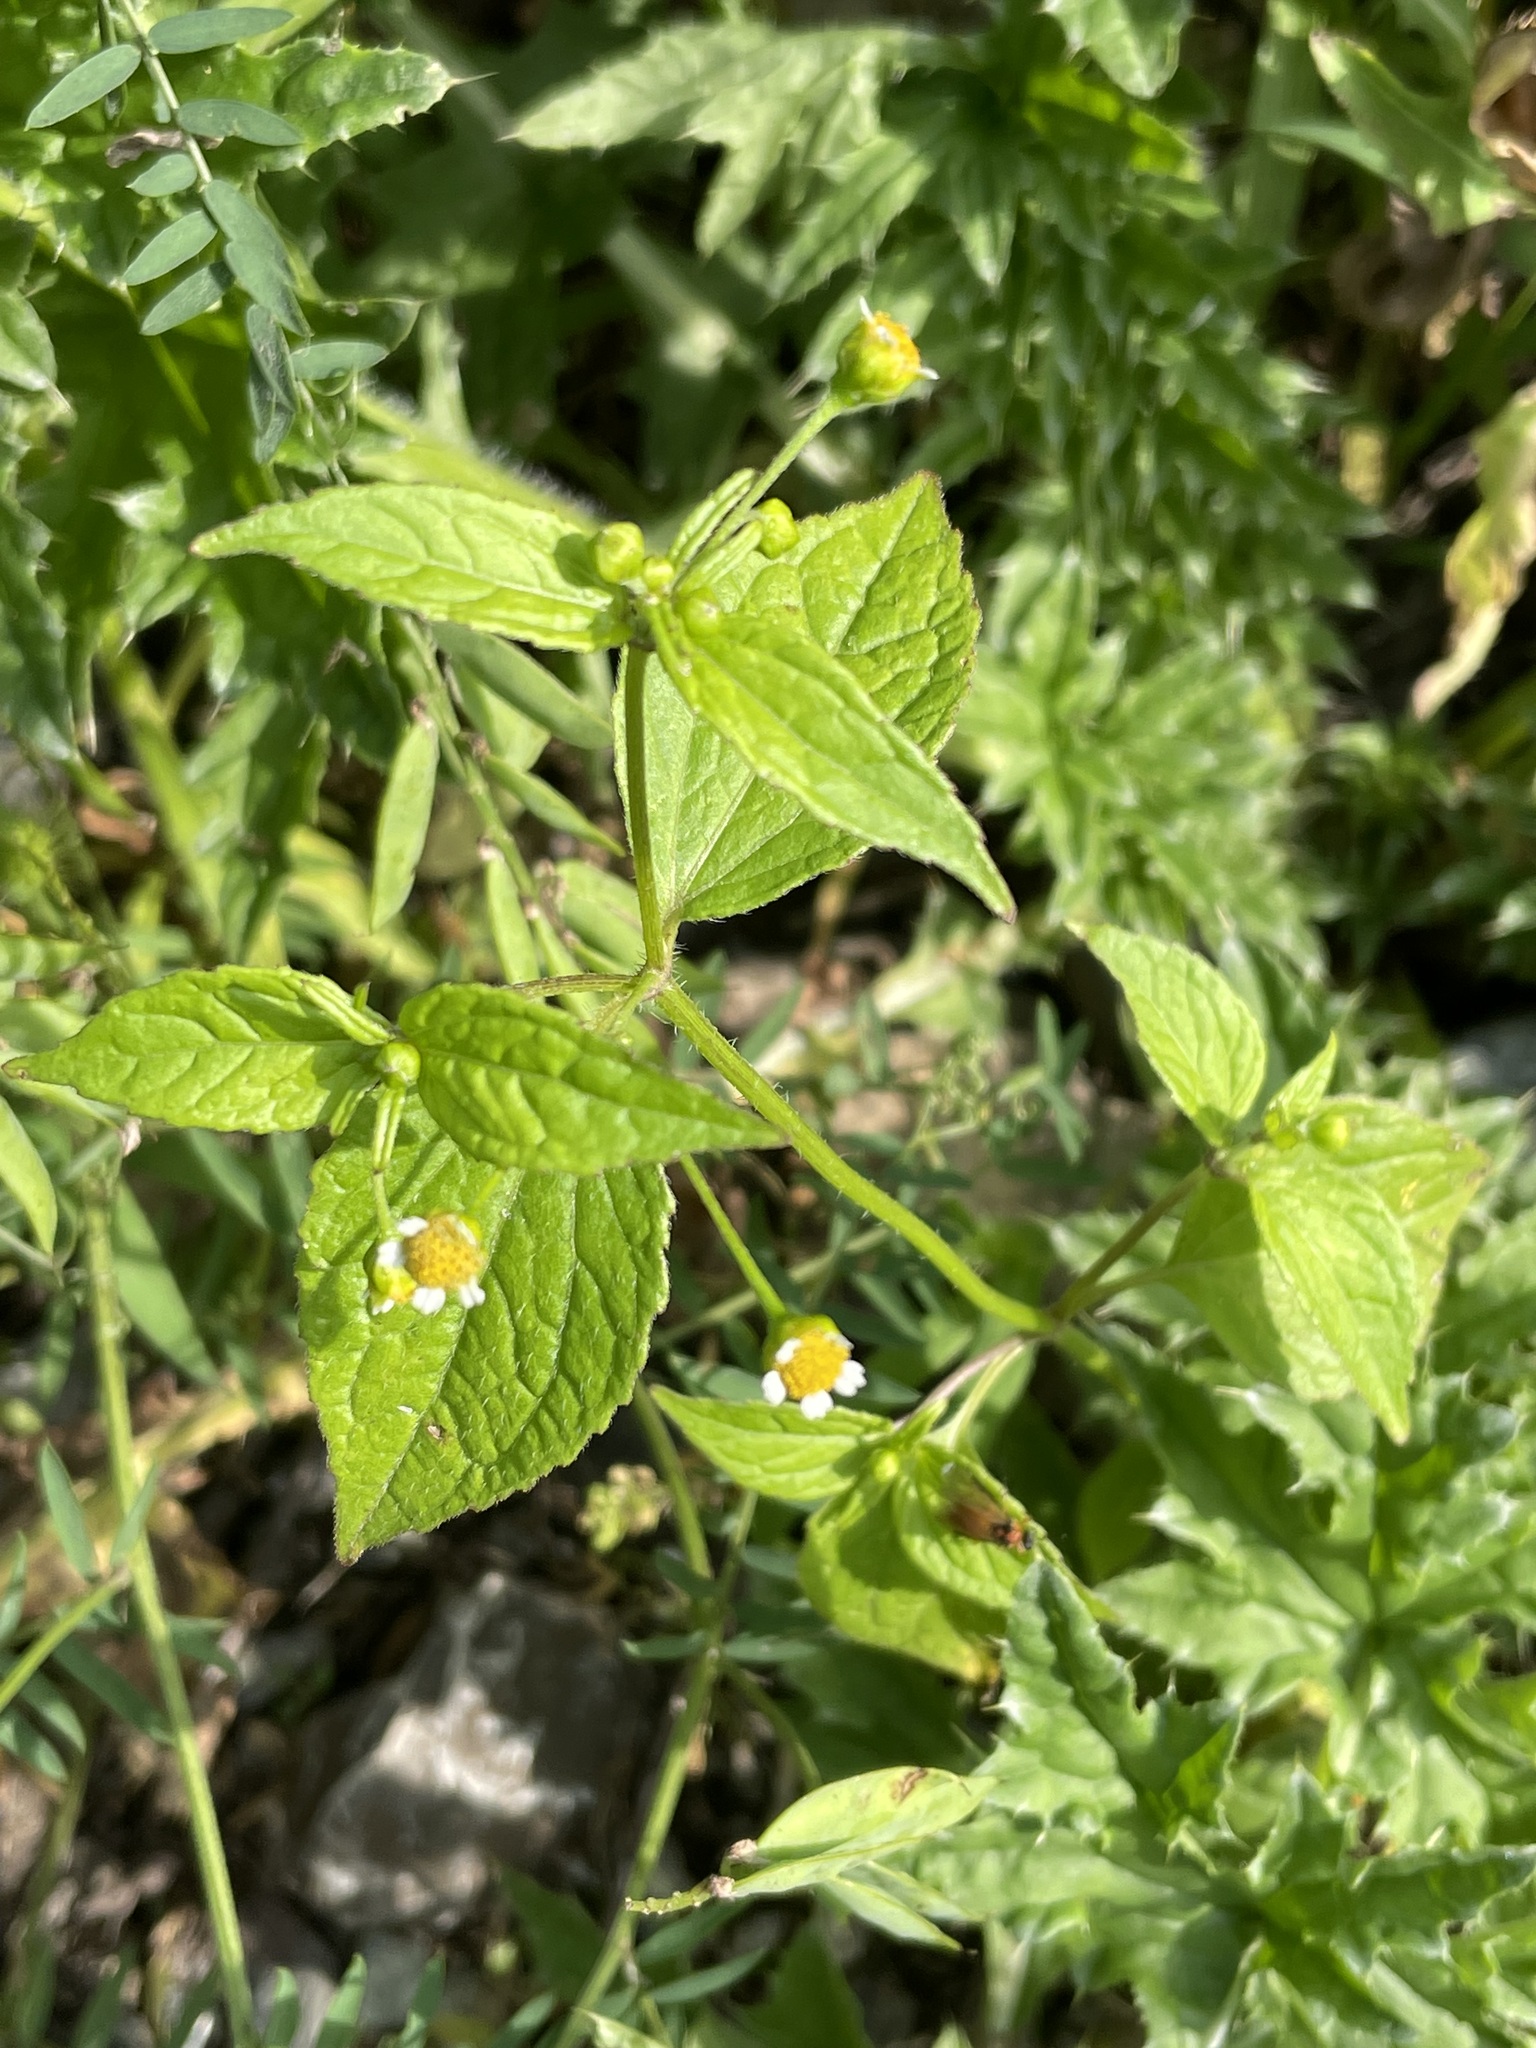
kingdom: Plantae
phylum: Tracheophyta
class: Magnoliopsida
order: Asterales
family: Asteraceae
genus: Galinsoga
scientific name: Galinsoga parviflora
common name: Gallant soldier
